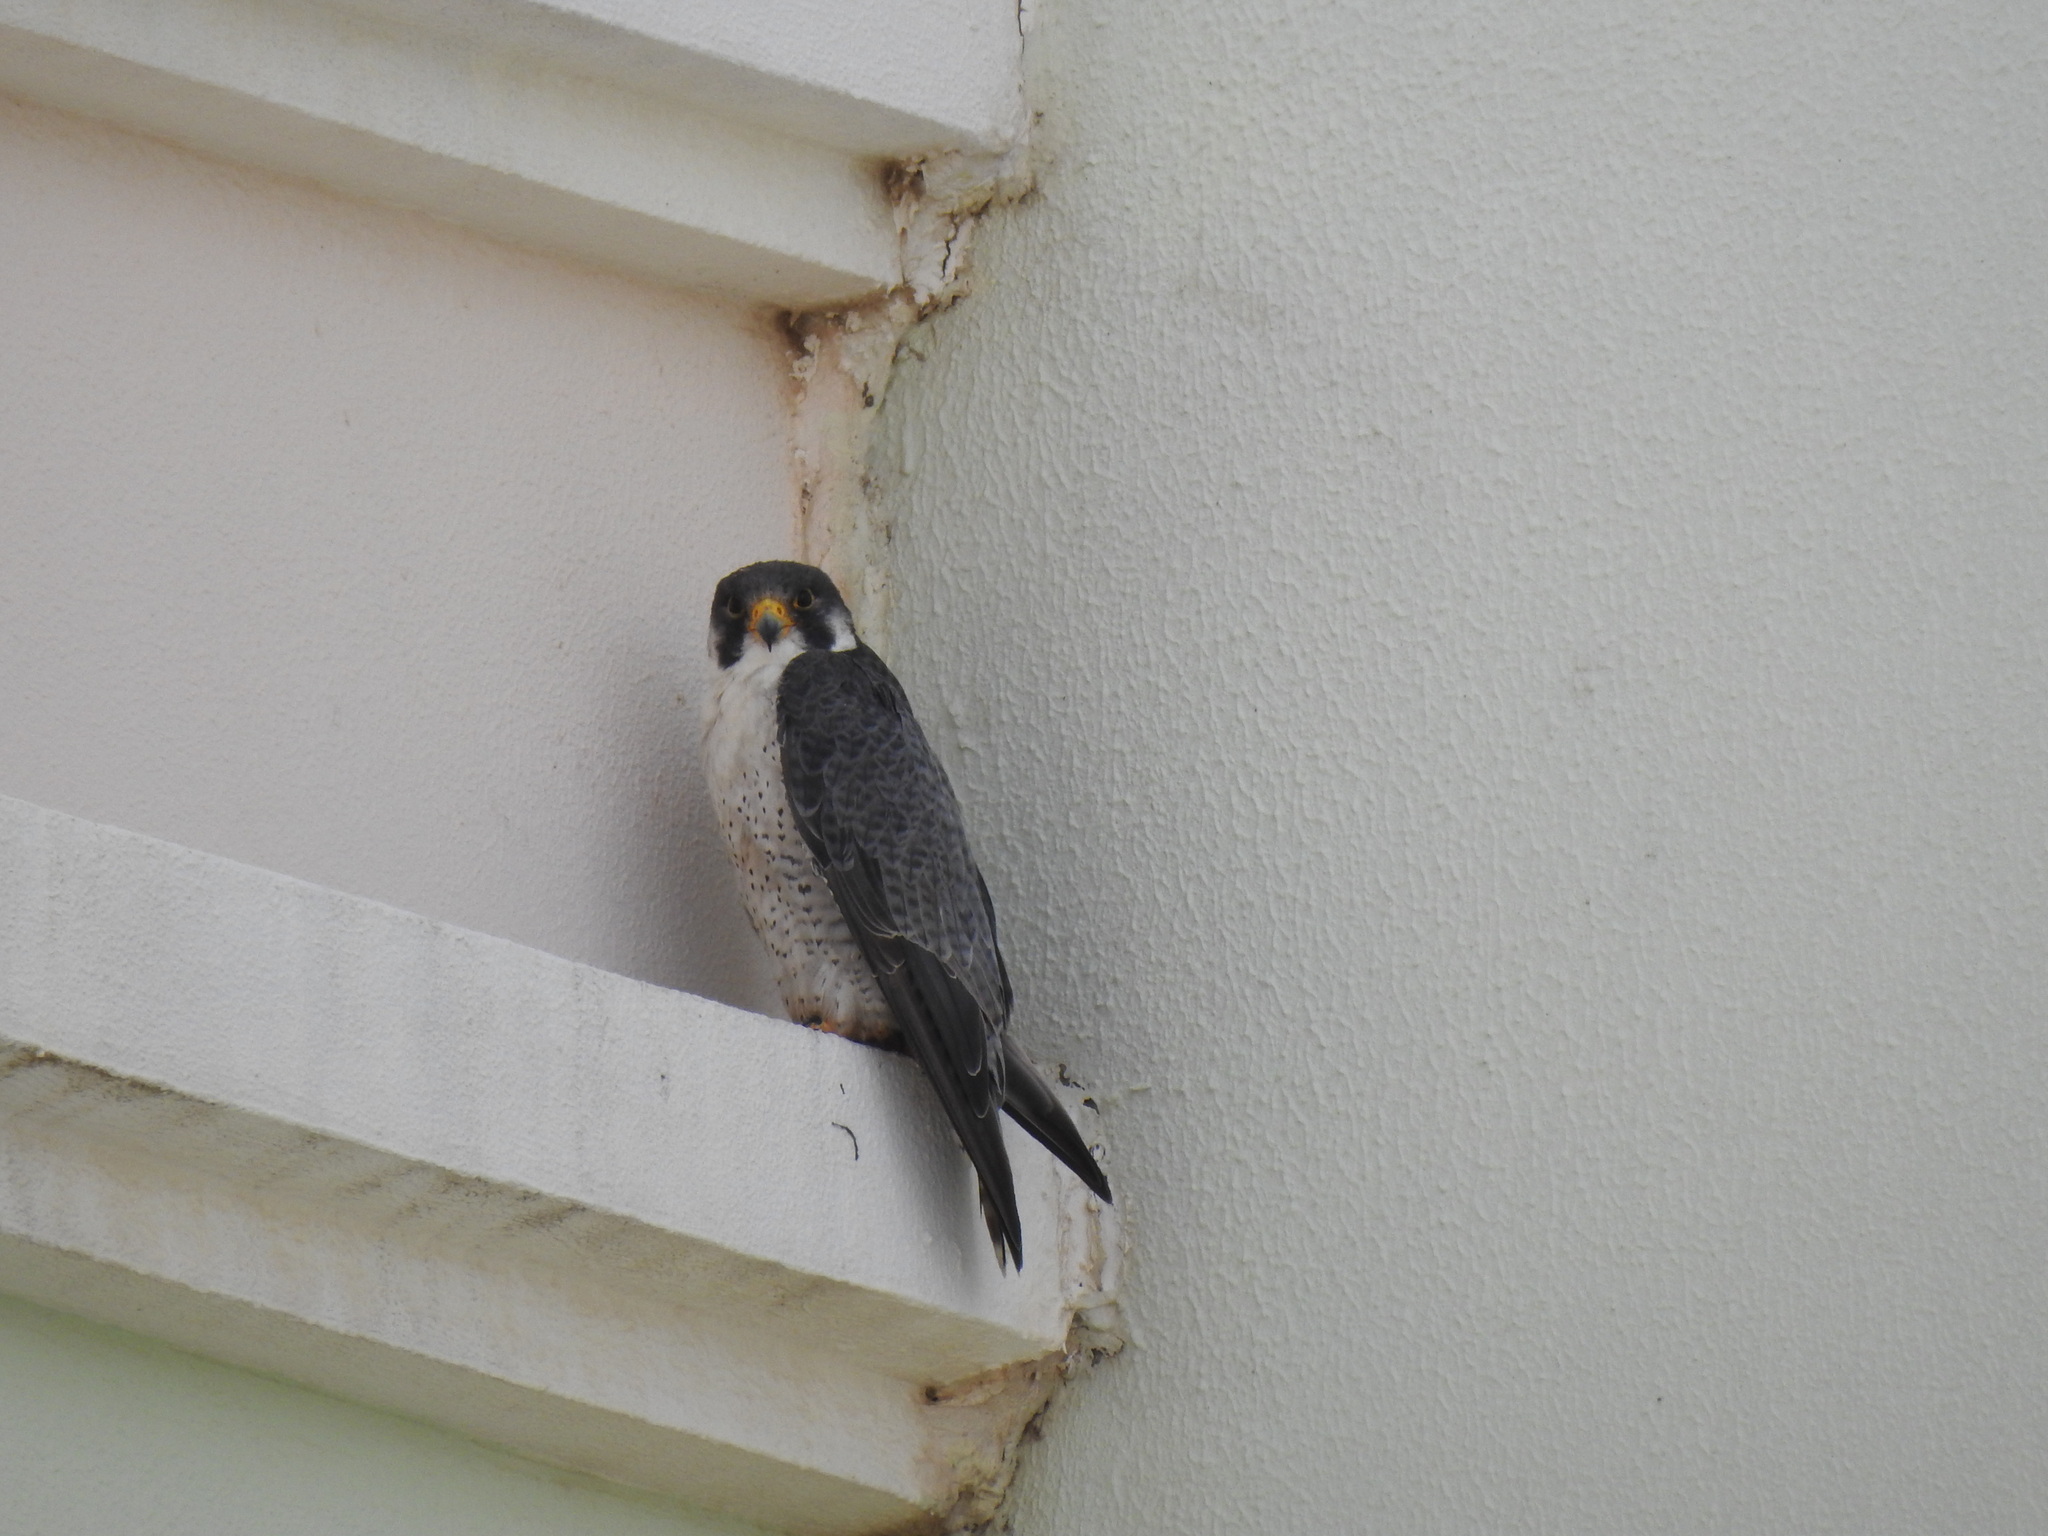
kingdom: Animalia
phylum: Chordata
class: Aves
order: Falconiformes
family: Falconidae
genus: Falco
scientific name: Falco peregrinus
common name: Peregrine falcon
